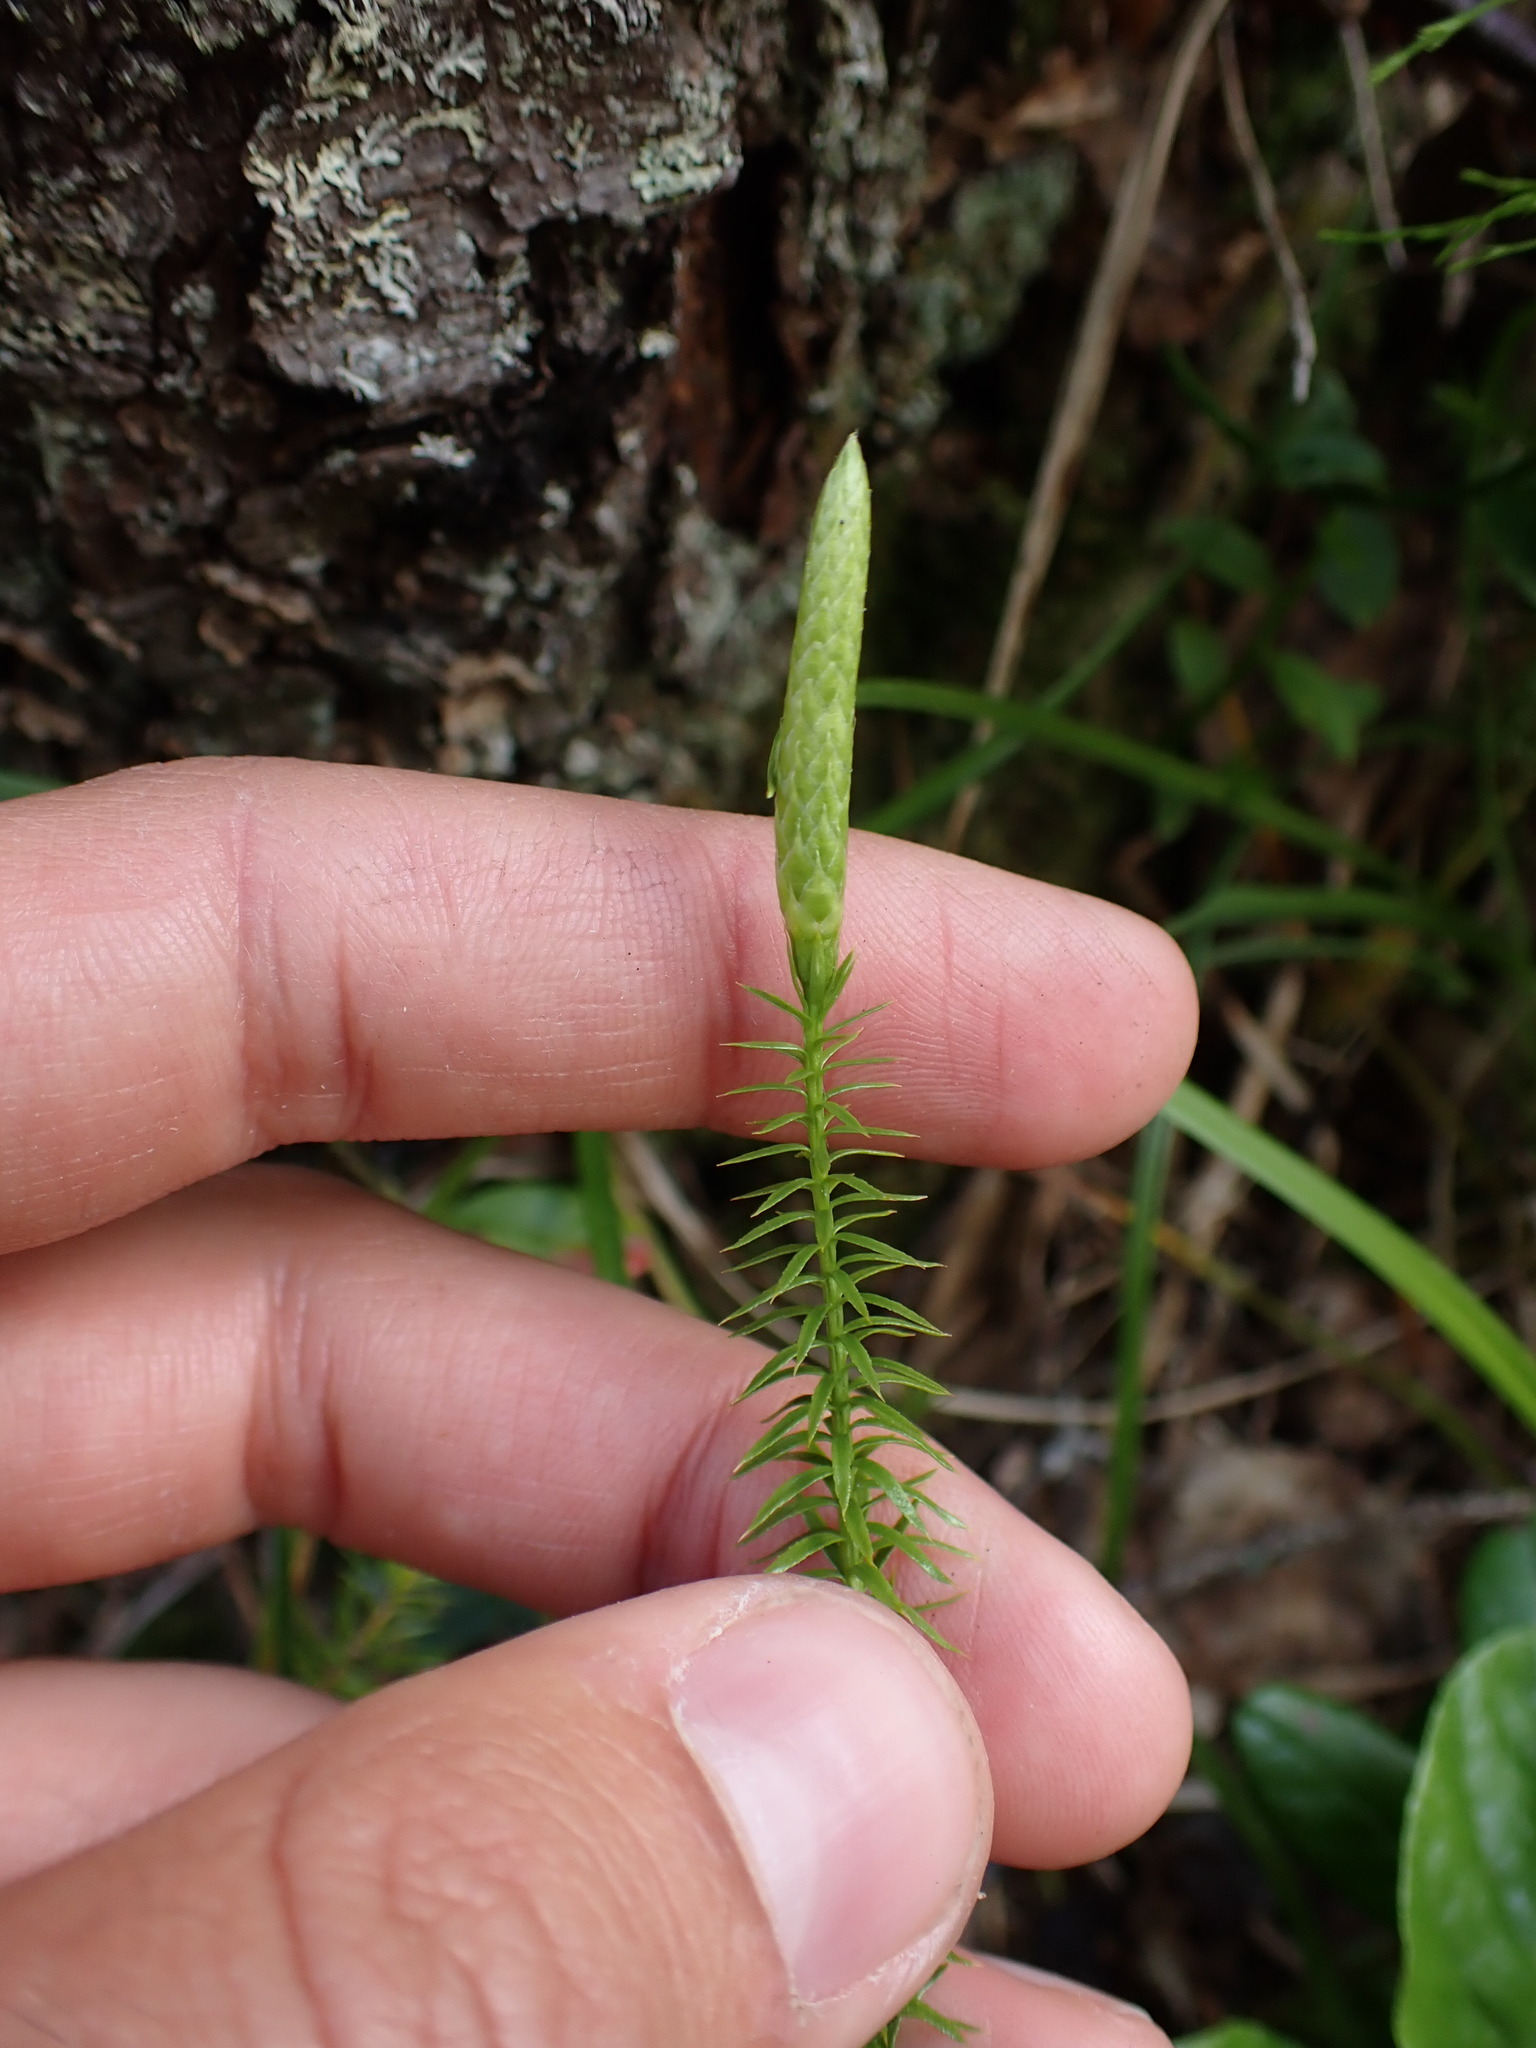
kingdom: Plantae
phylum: Tracheophyta
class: Lycopodiopsida
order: Lycopodiales
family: Lycopodiaceae
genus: Spinulum
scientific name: Spinulum annotinum
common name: Interrupted club-moss
